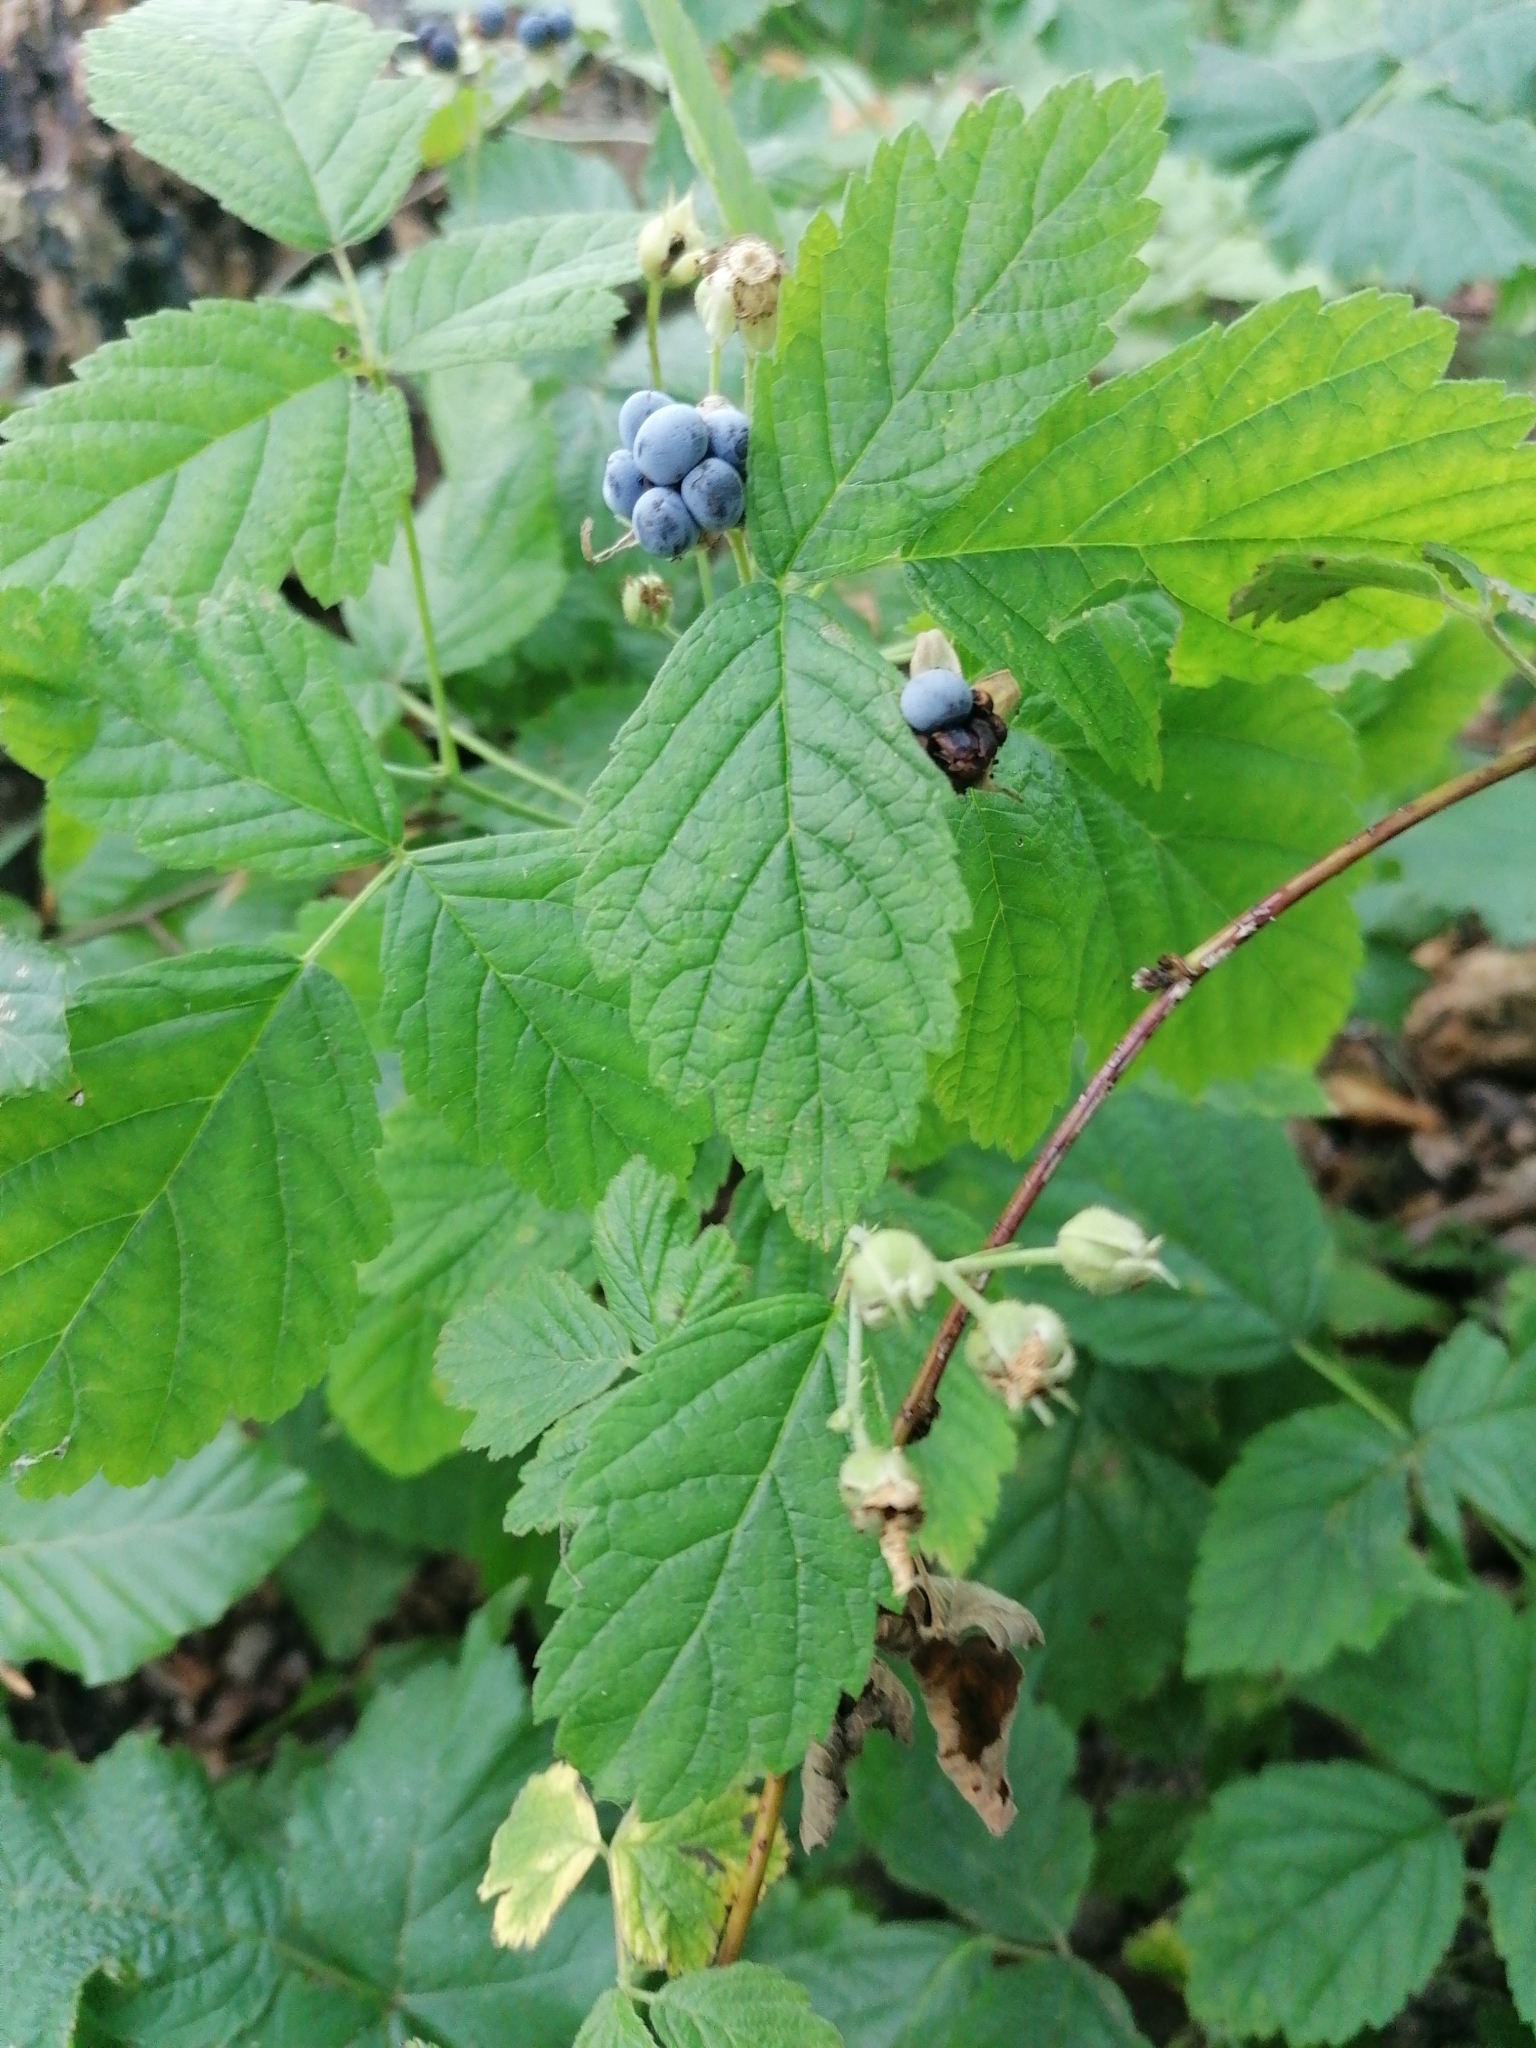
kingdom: Plantae
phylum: Tracheophyta
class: Magnoliopsida
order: Rosales
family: Rosaceae
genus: Rubus
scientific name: Rubus caesius
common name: Dewberry
